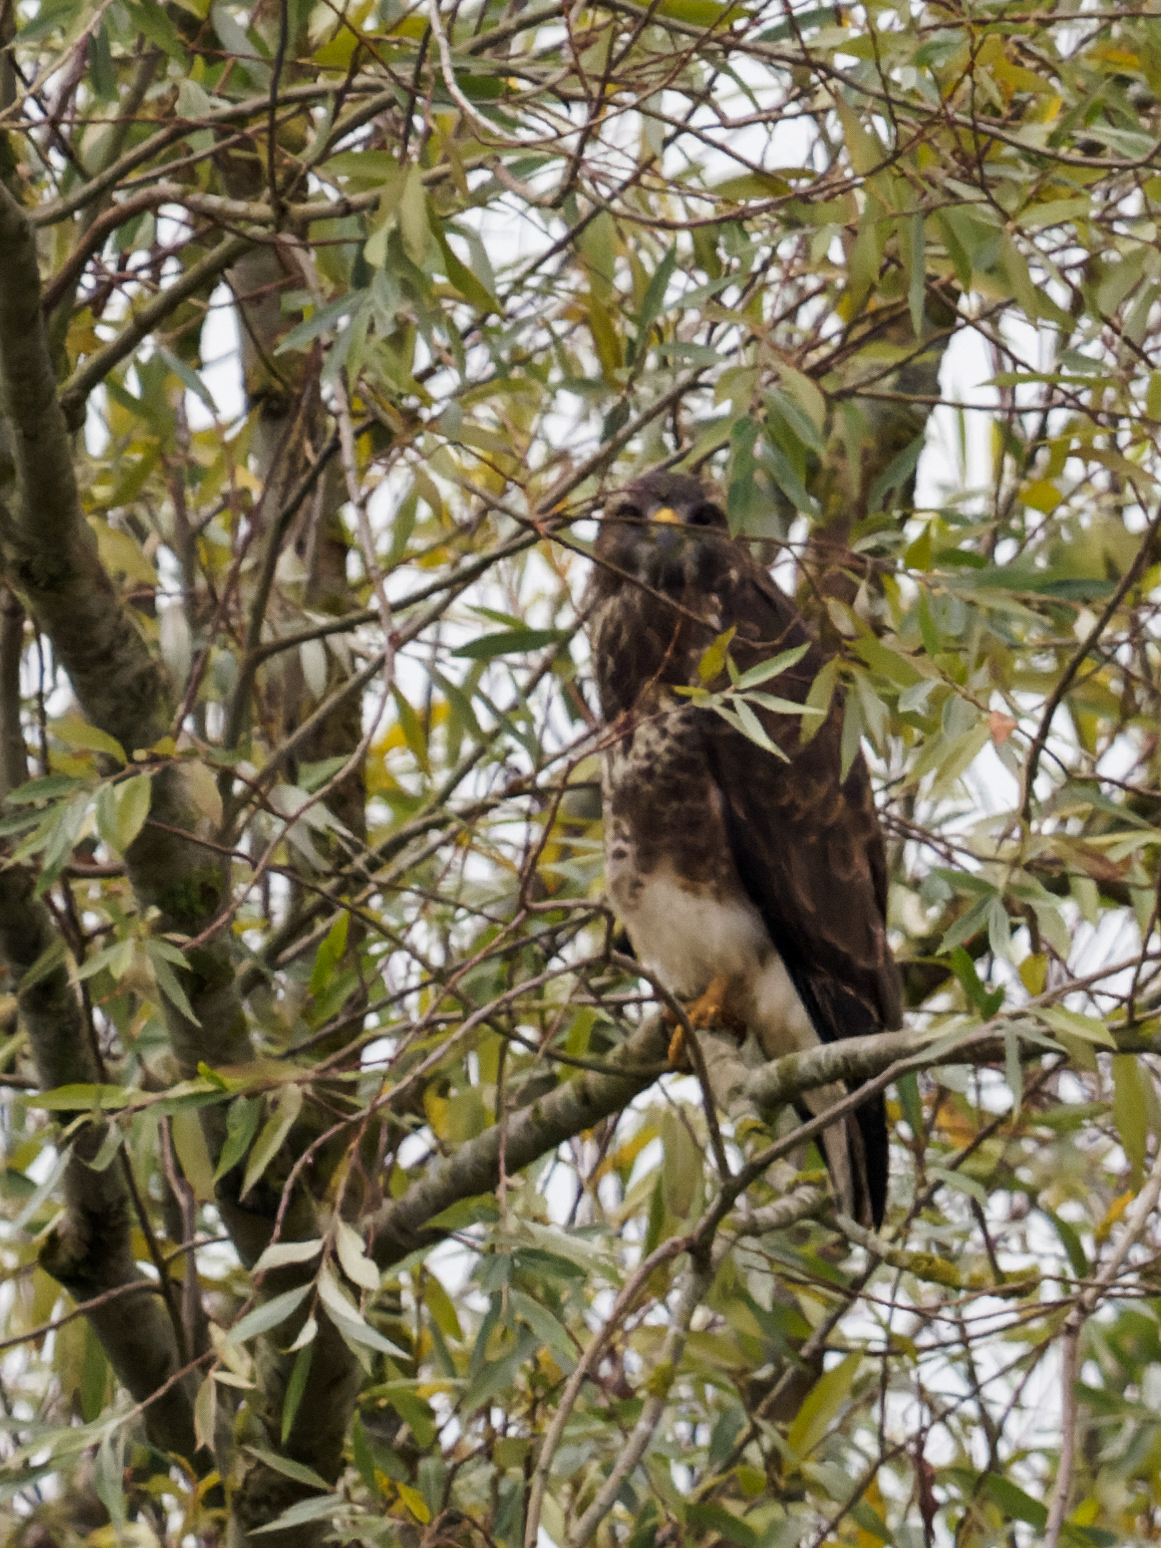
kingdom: Animalia
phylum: Chordata
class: Aves
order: Accipitriformes
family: Accipitridae
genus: Buteo
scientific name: Buteo buteo
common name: Common buzzard
